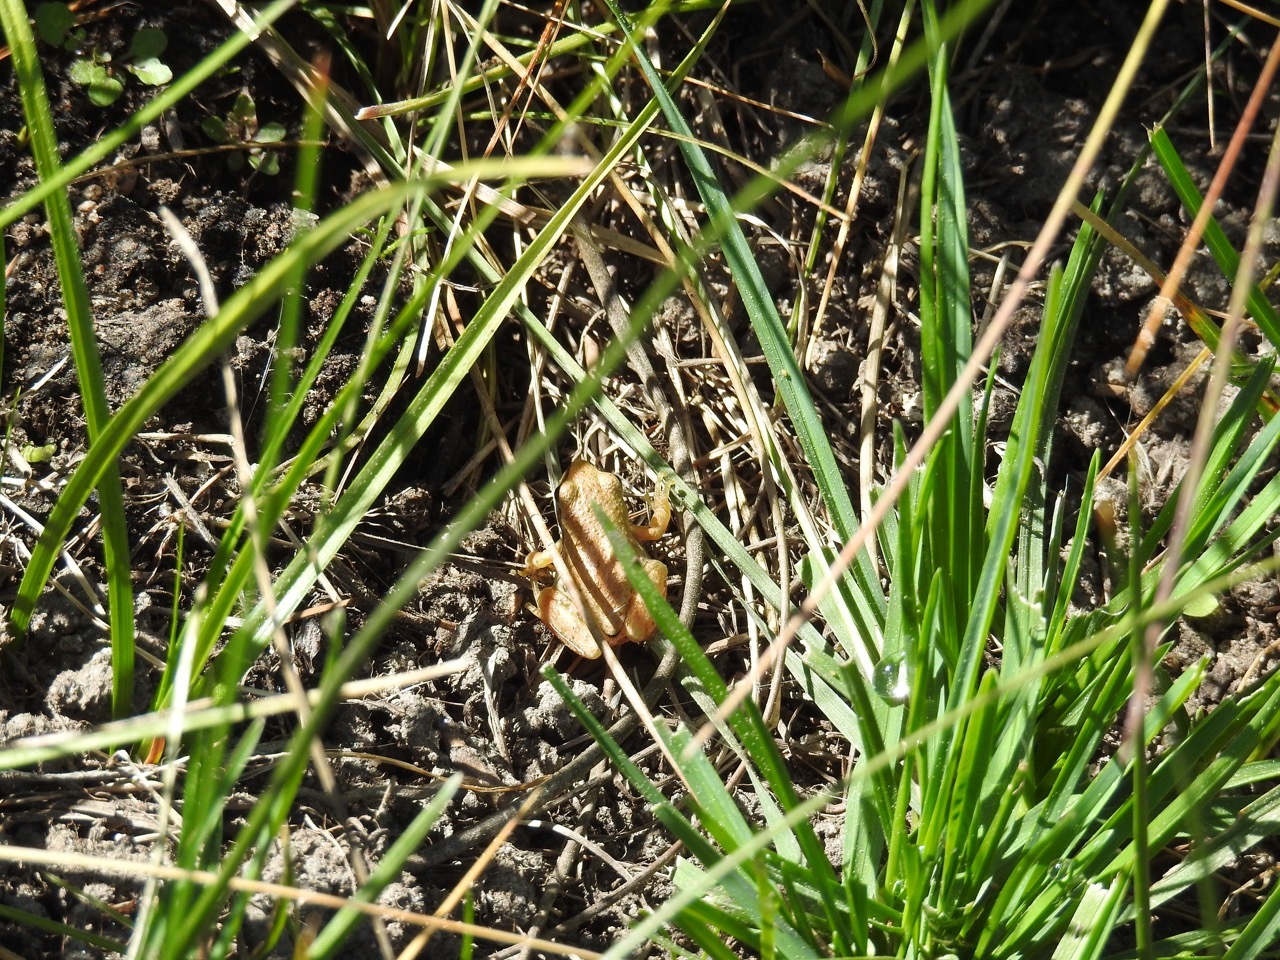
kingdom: Animalia
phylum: Chordata
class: Amphibia
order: Anura
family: Hylidae
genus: Pseudacris
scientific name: Pseudacris regilla
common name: Pacific chorus frog
